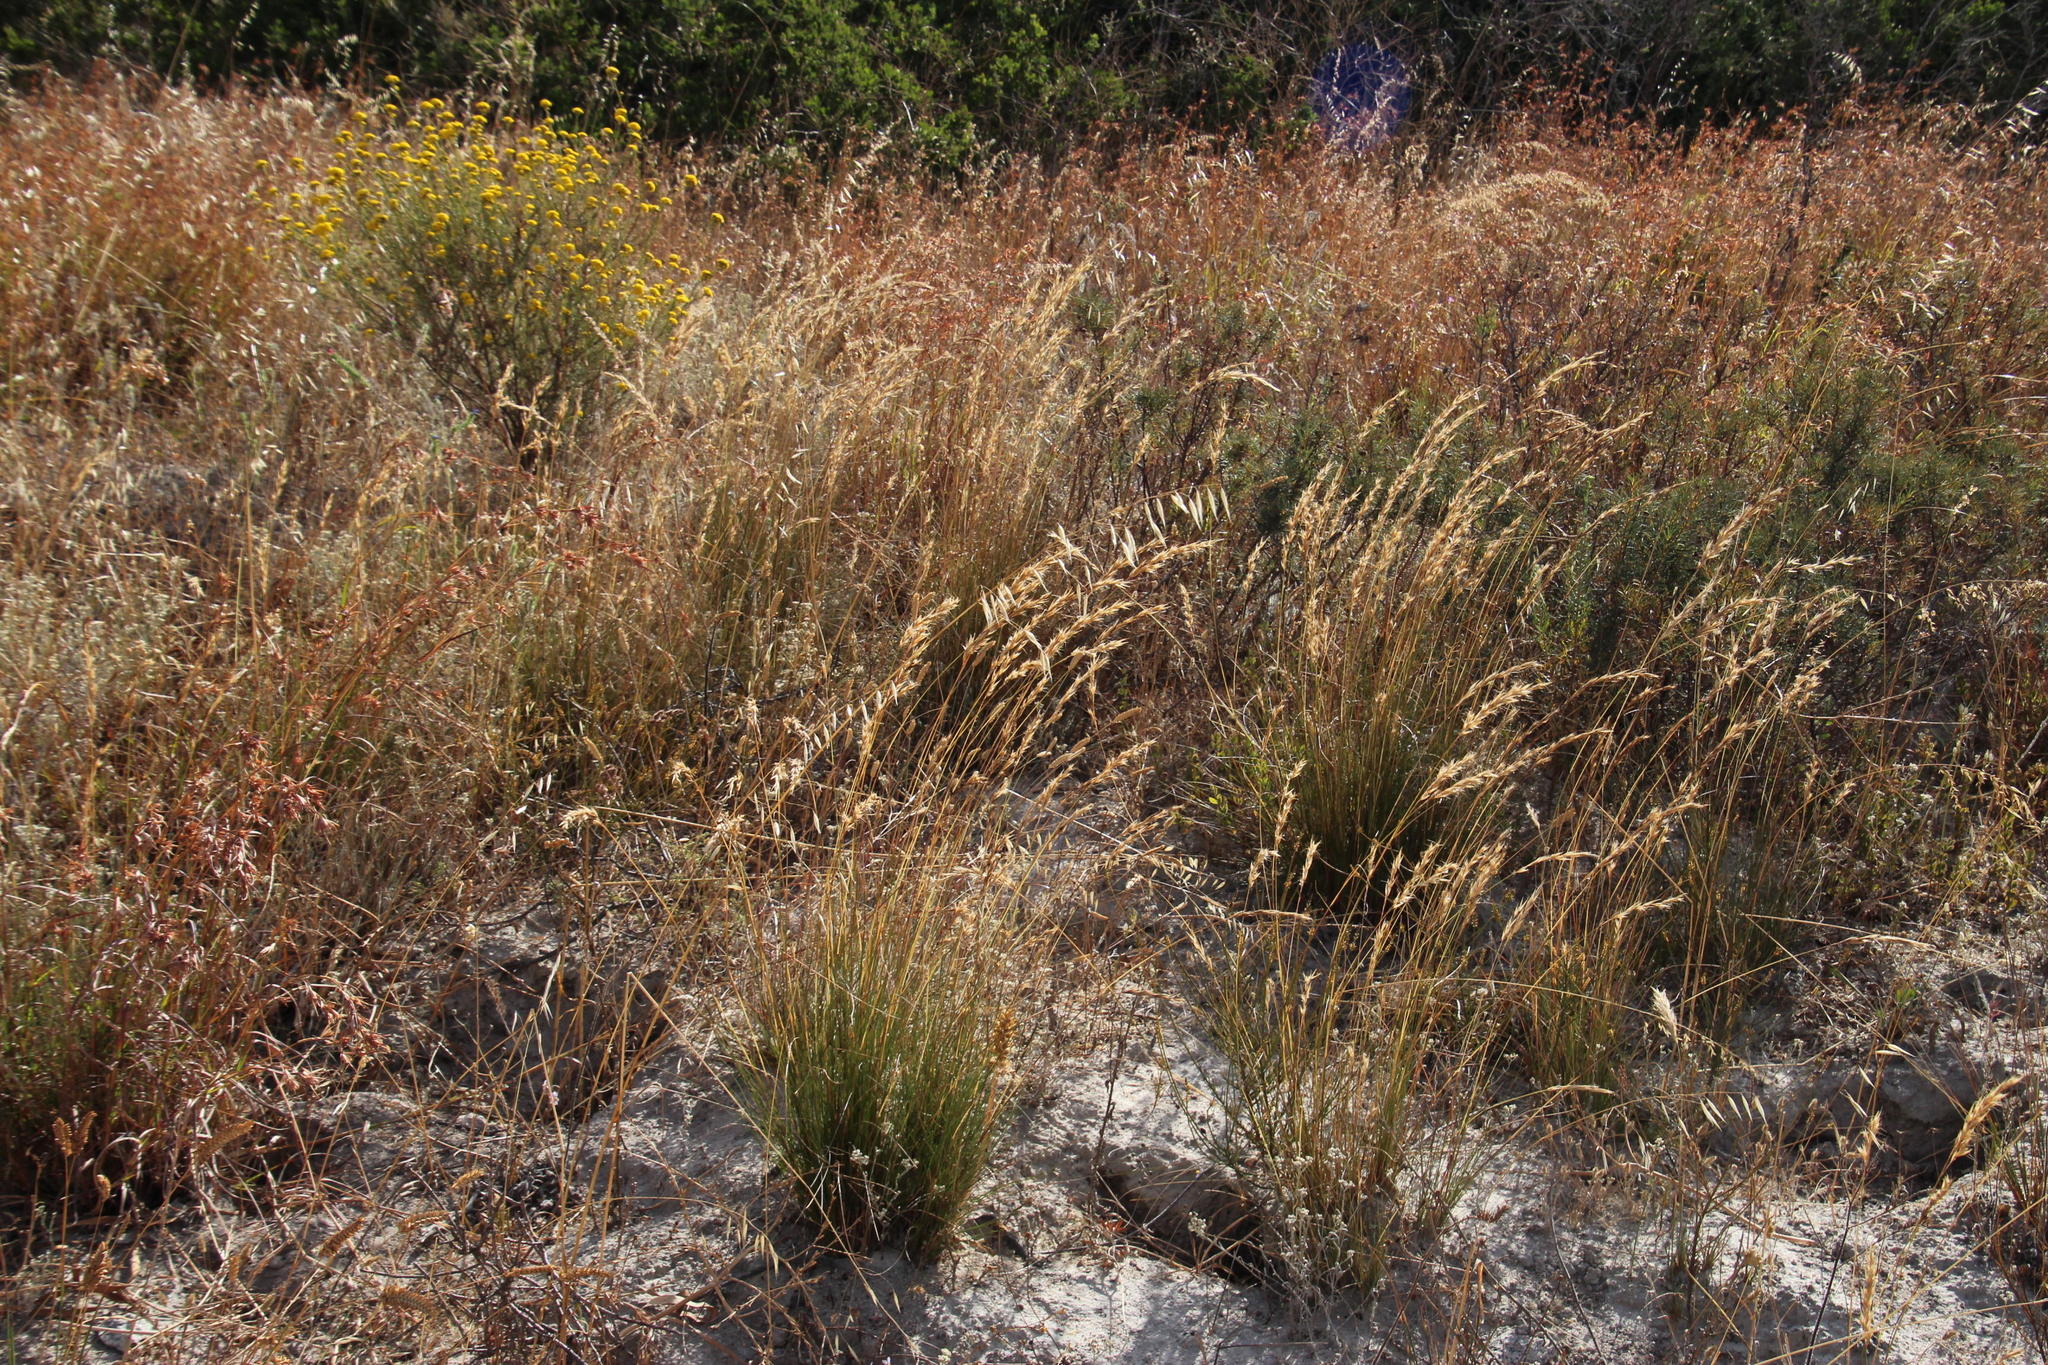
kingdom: Plantae
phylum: Tracheophyta
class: Liliopsida
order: Poales
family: Poaceae
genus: Avena
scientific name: Avena fatua
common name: Wild oat
